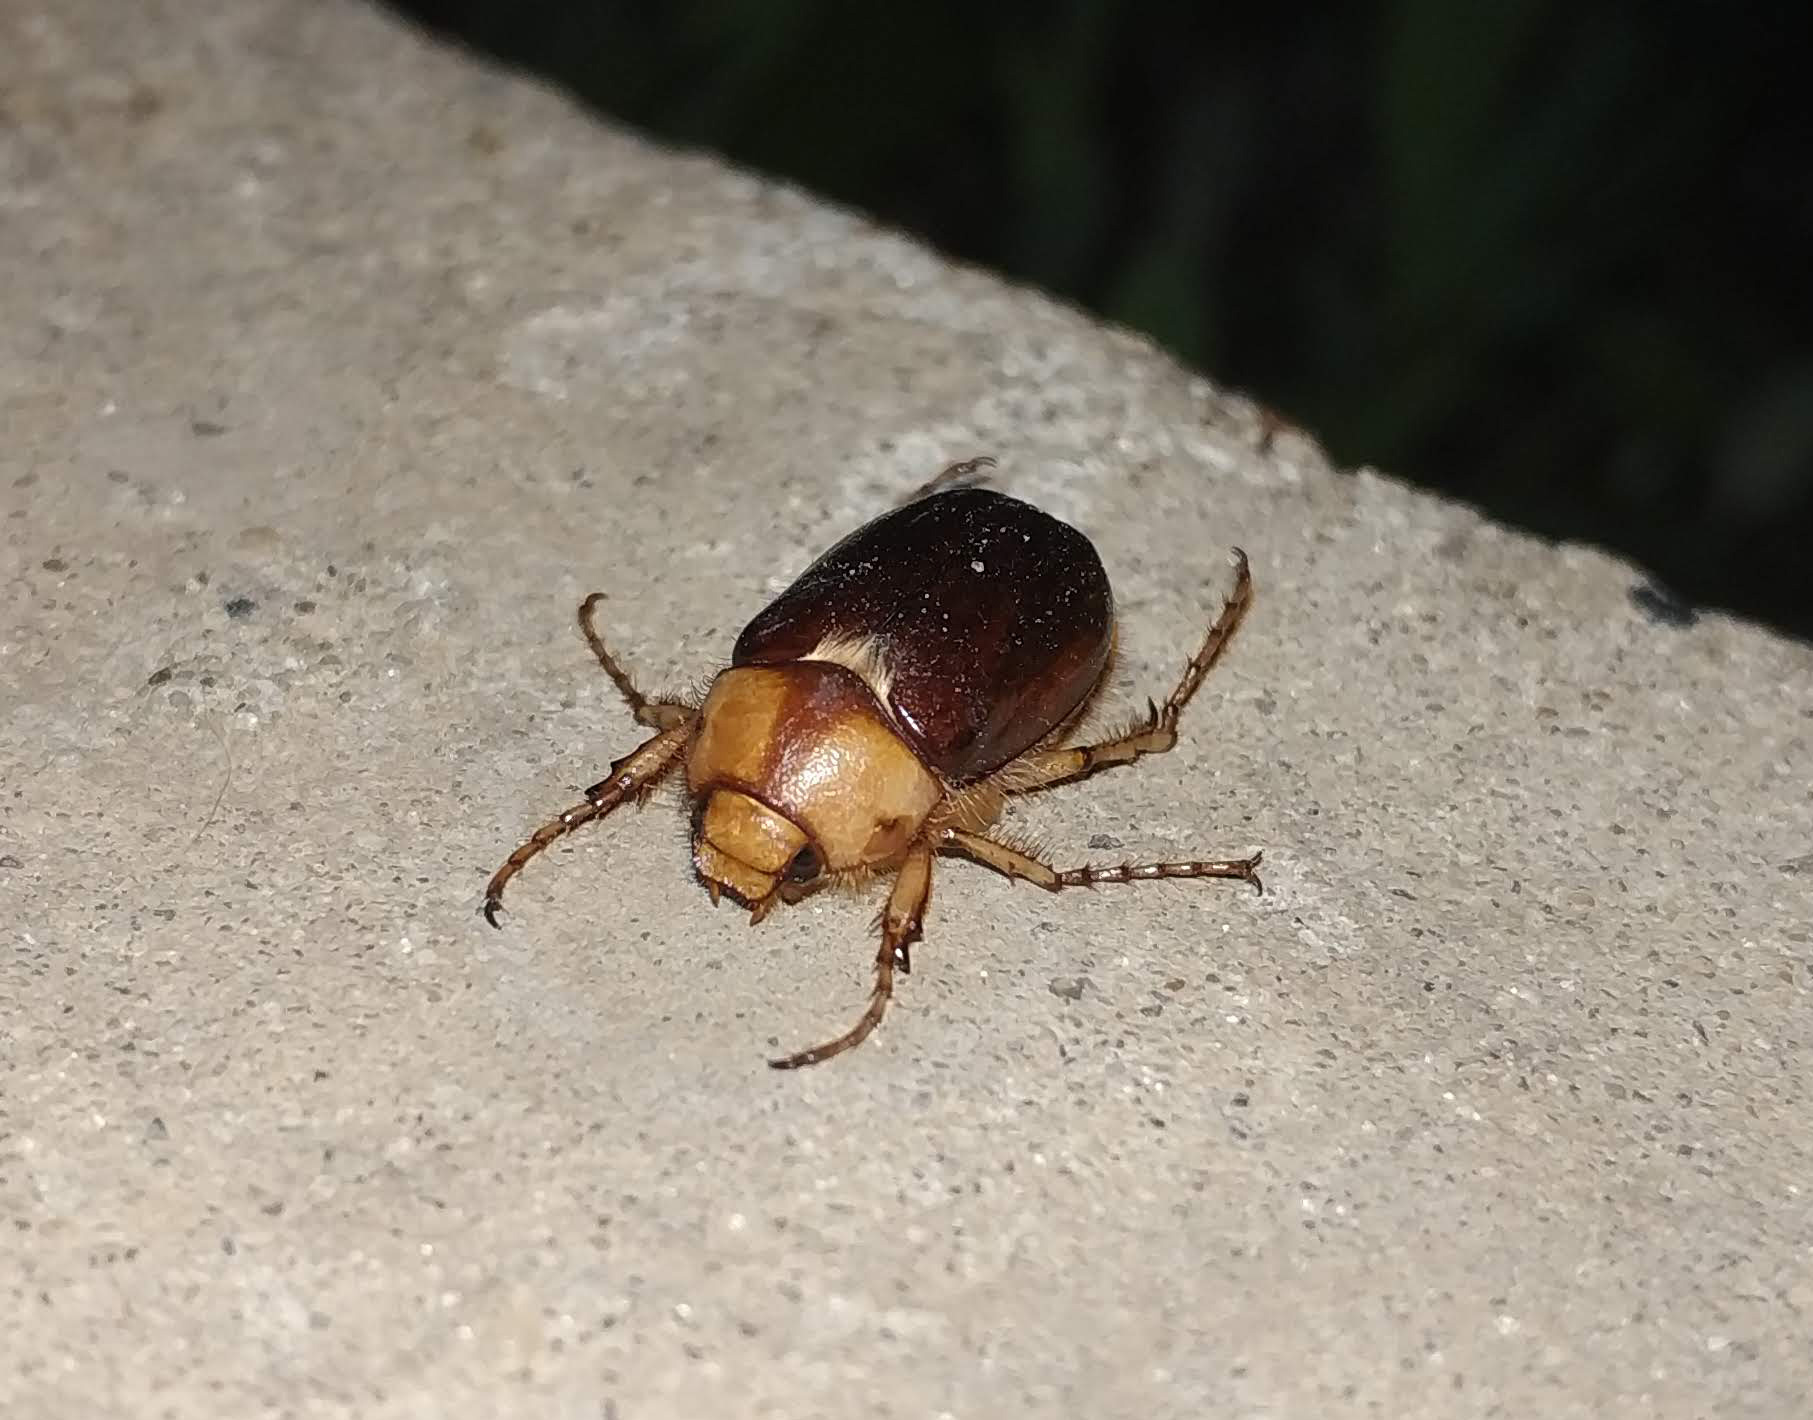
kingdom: Animalia
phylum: Arthropoda
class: Insecta
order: Coleoptera
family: Scarabaeidae
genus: Rhizotrogus
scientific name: Rhizotrogus aestivus
